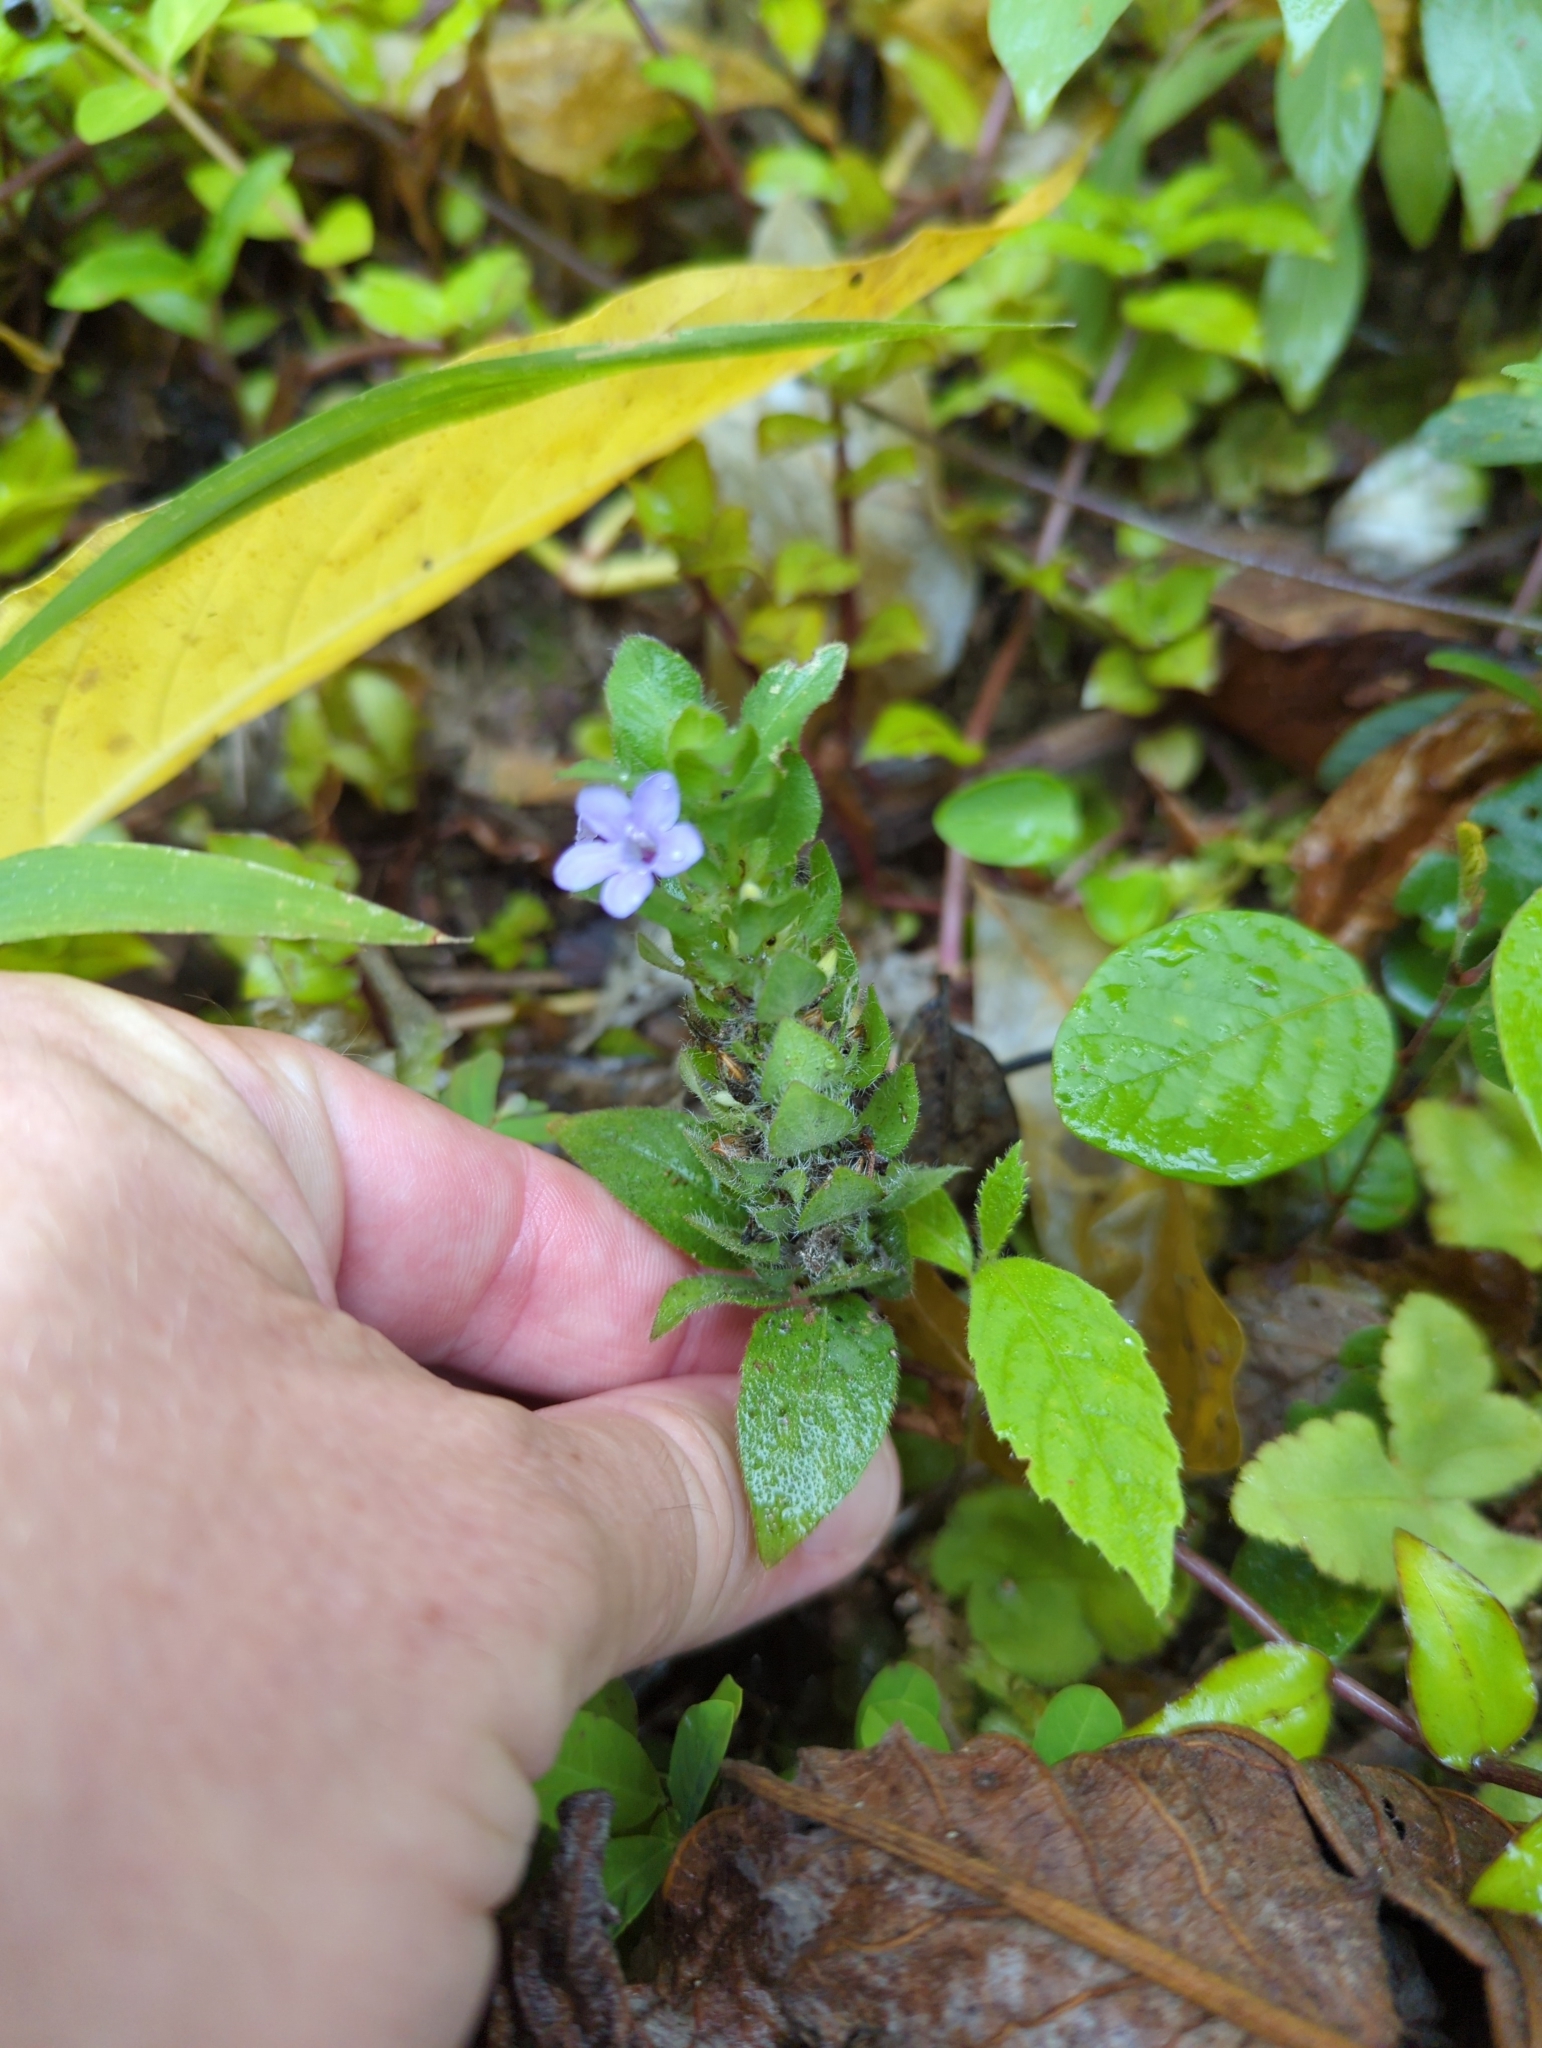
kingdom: Plantae
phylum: Tracheophyta
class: Magnoliopsida
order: Lamiales
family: Acanthaceae
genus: Ruellia
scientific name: Ruellia blechum
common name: Browne's blechum
